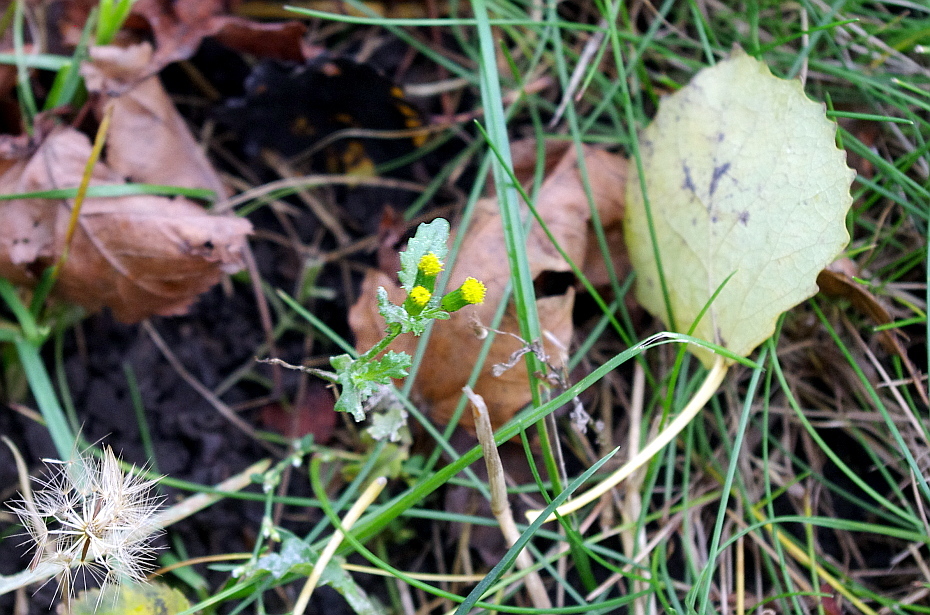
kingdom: Plantae
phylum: Tracheophyta
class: Magnoliopsida
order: Asterales
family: Asteraceae
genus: Senecio
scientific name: Senecio vulgaris
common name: Old-man-in-the-spring
